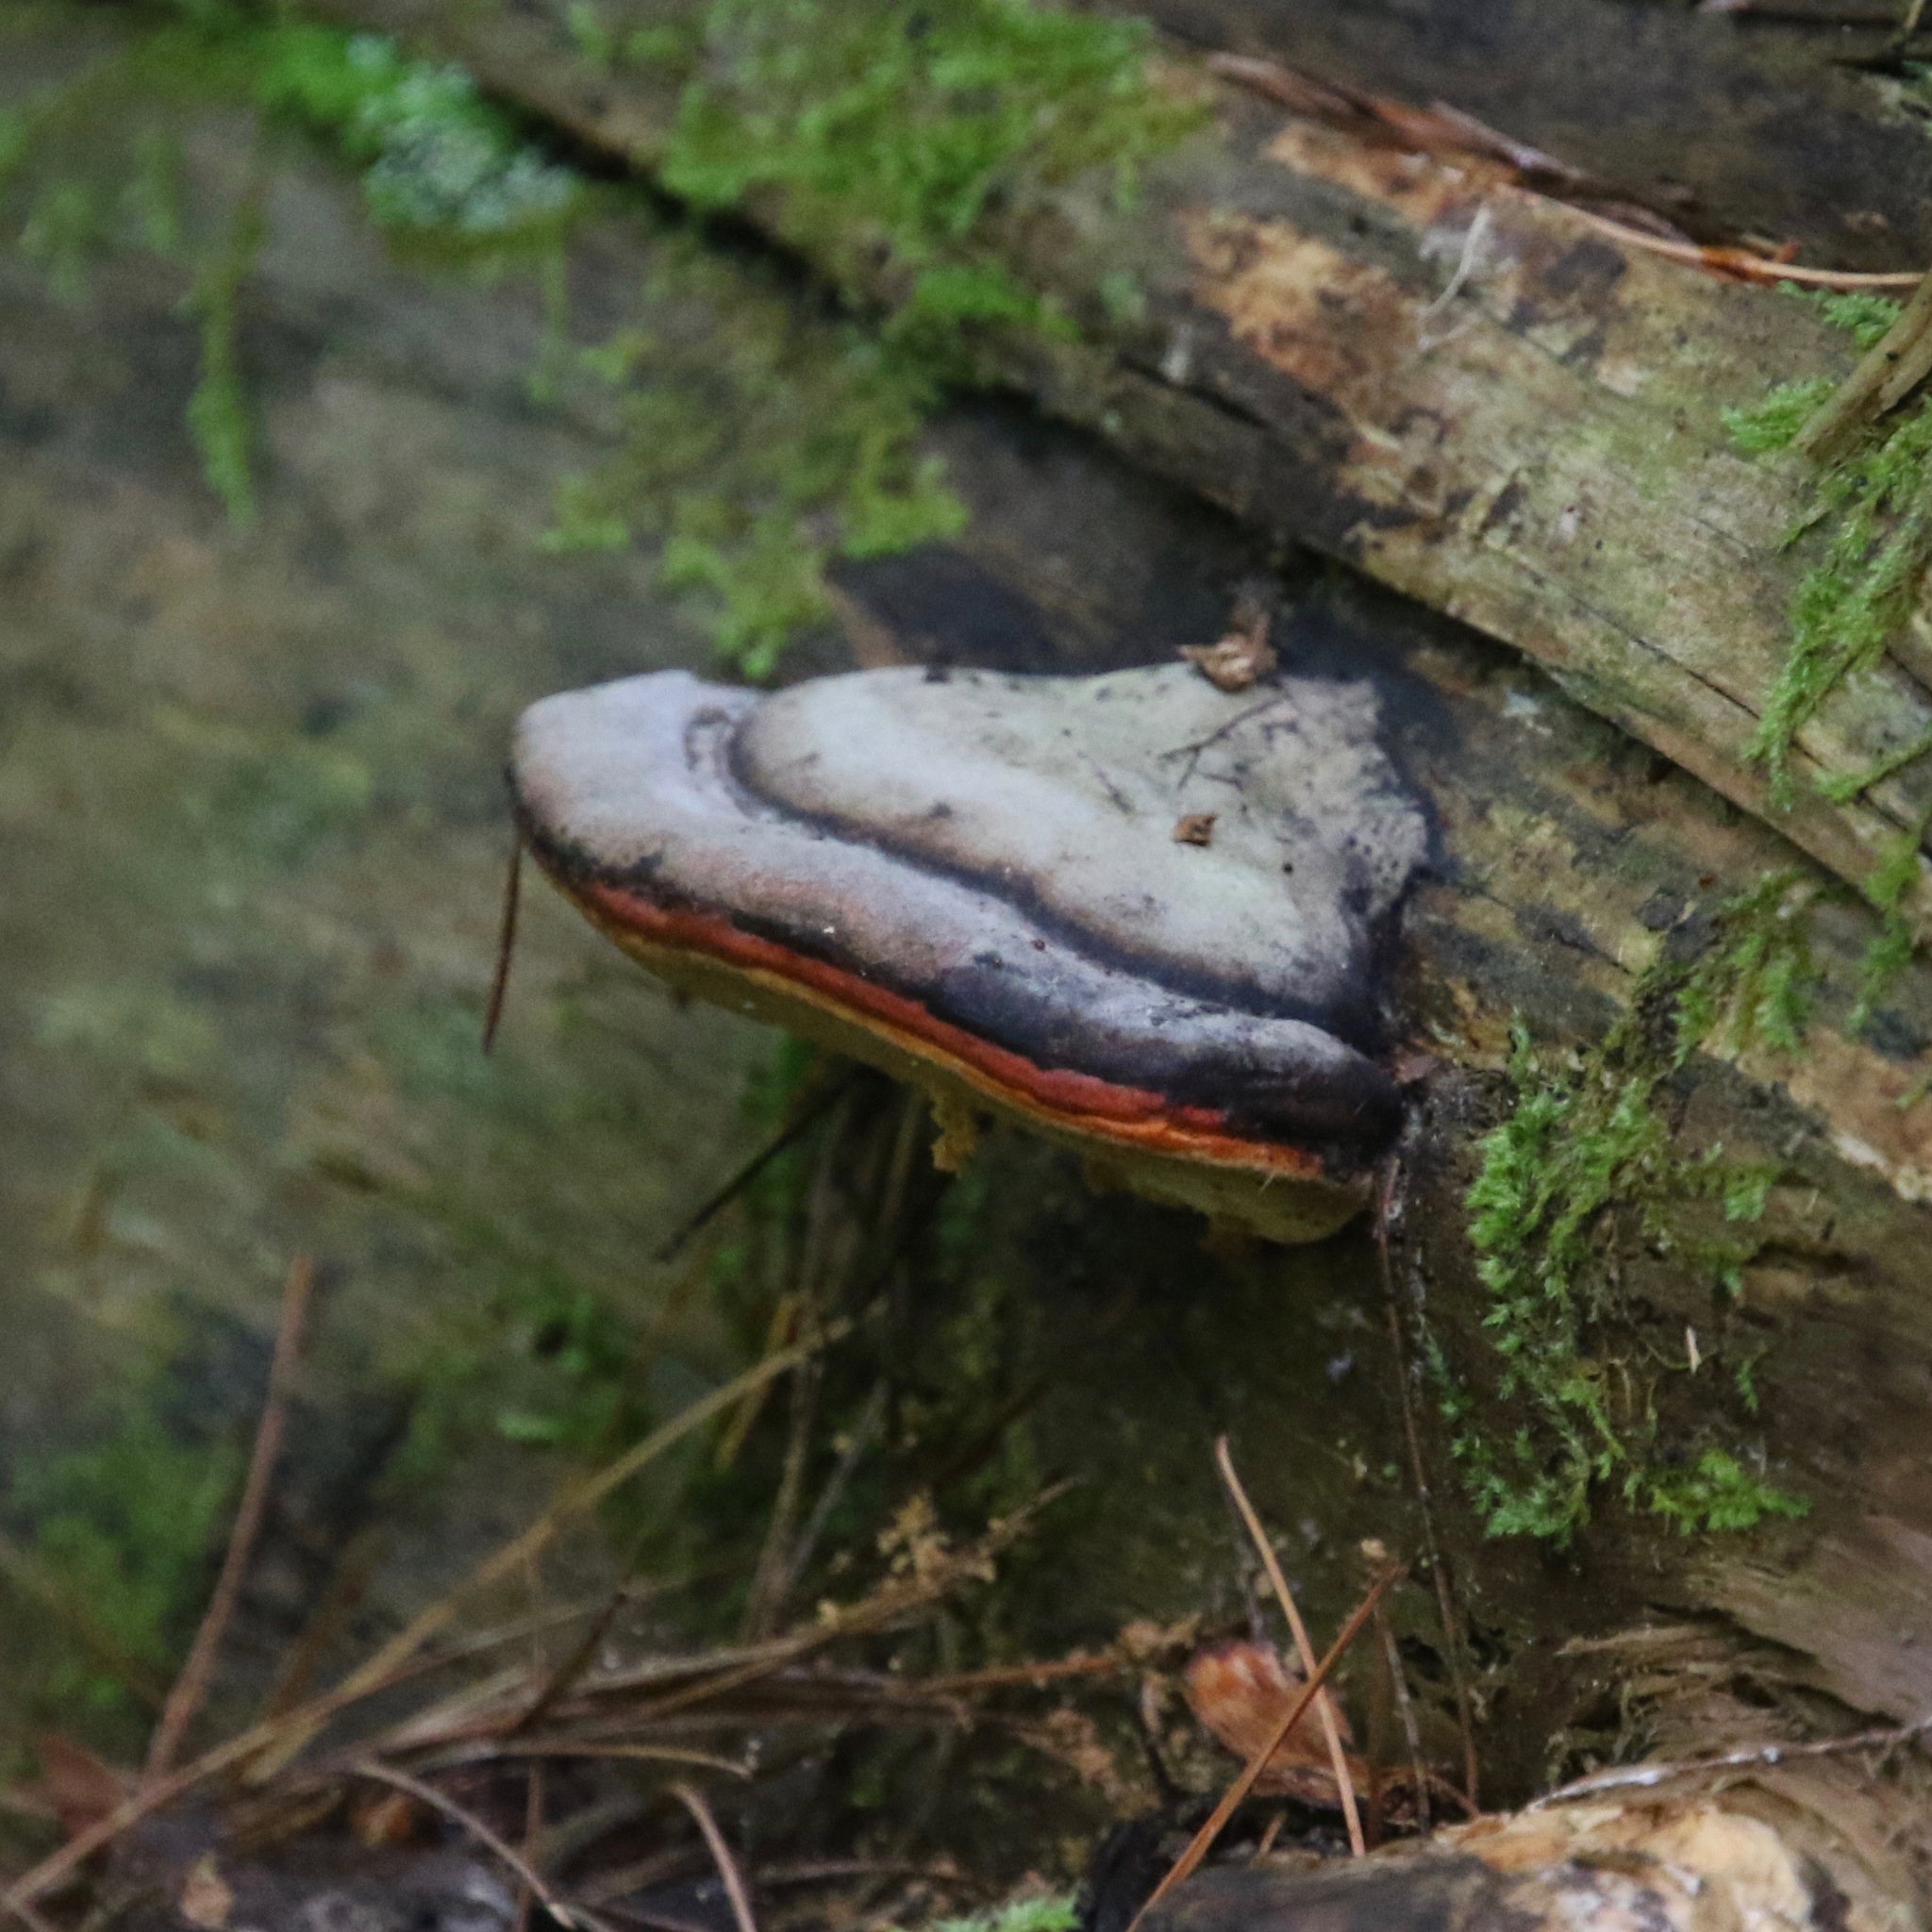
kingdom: Fungi
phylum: Basidiomycota
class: Agaricomycetes
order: Polyporales
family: Fomitopsidaceae
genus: Fomitopsis
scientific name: Fomitopsis mounceae
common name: Northern red belt
